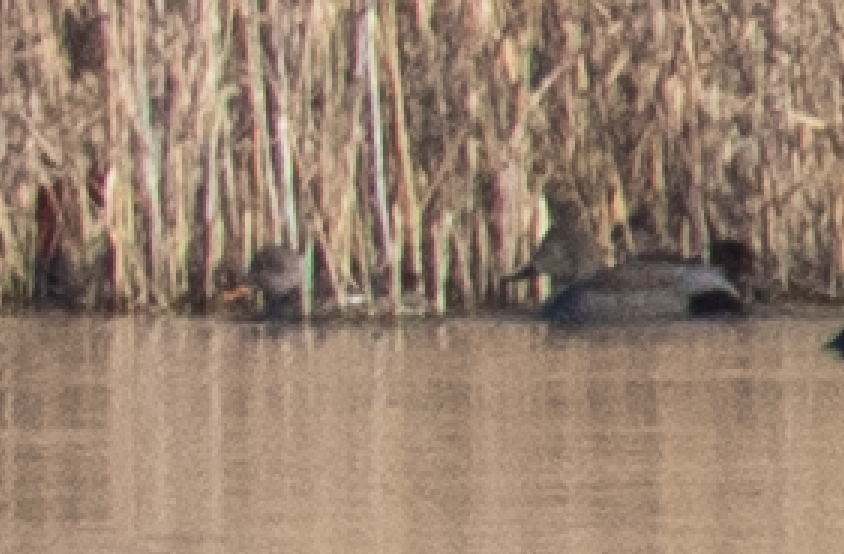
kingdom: Animalia
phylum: Chordata
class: Aves
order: Anseriformes
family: Anatidae
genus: Aythya
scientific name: Aythya ferina
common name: Common pochard
